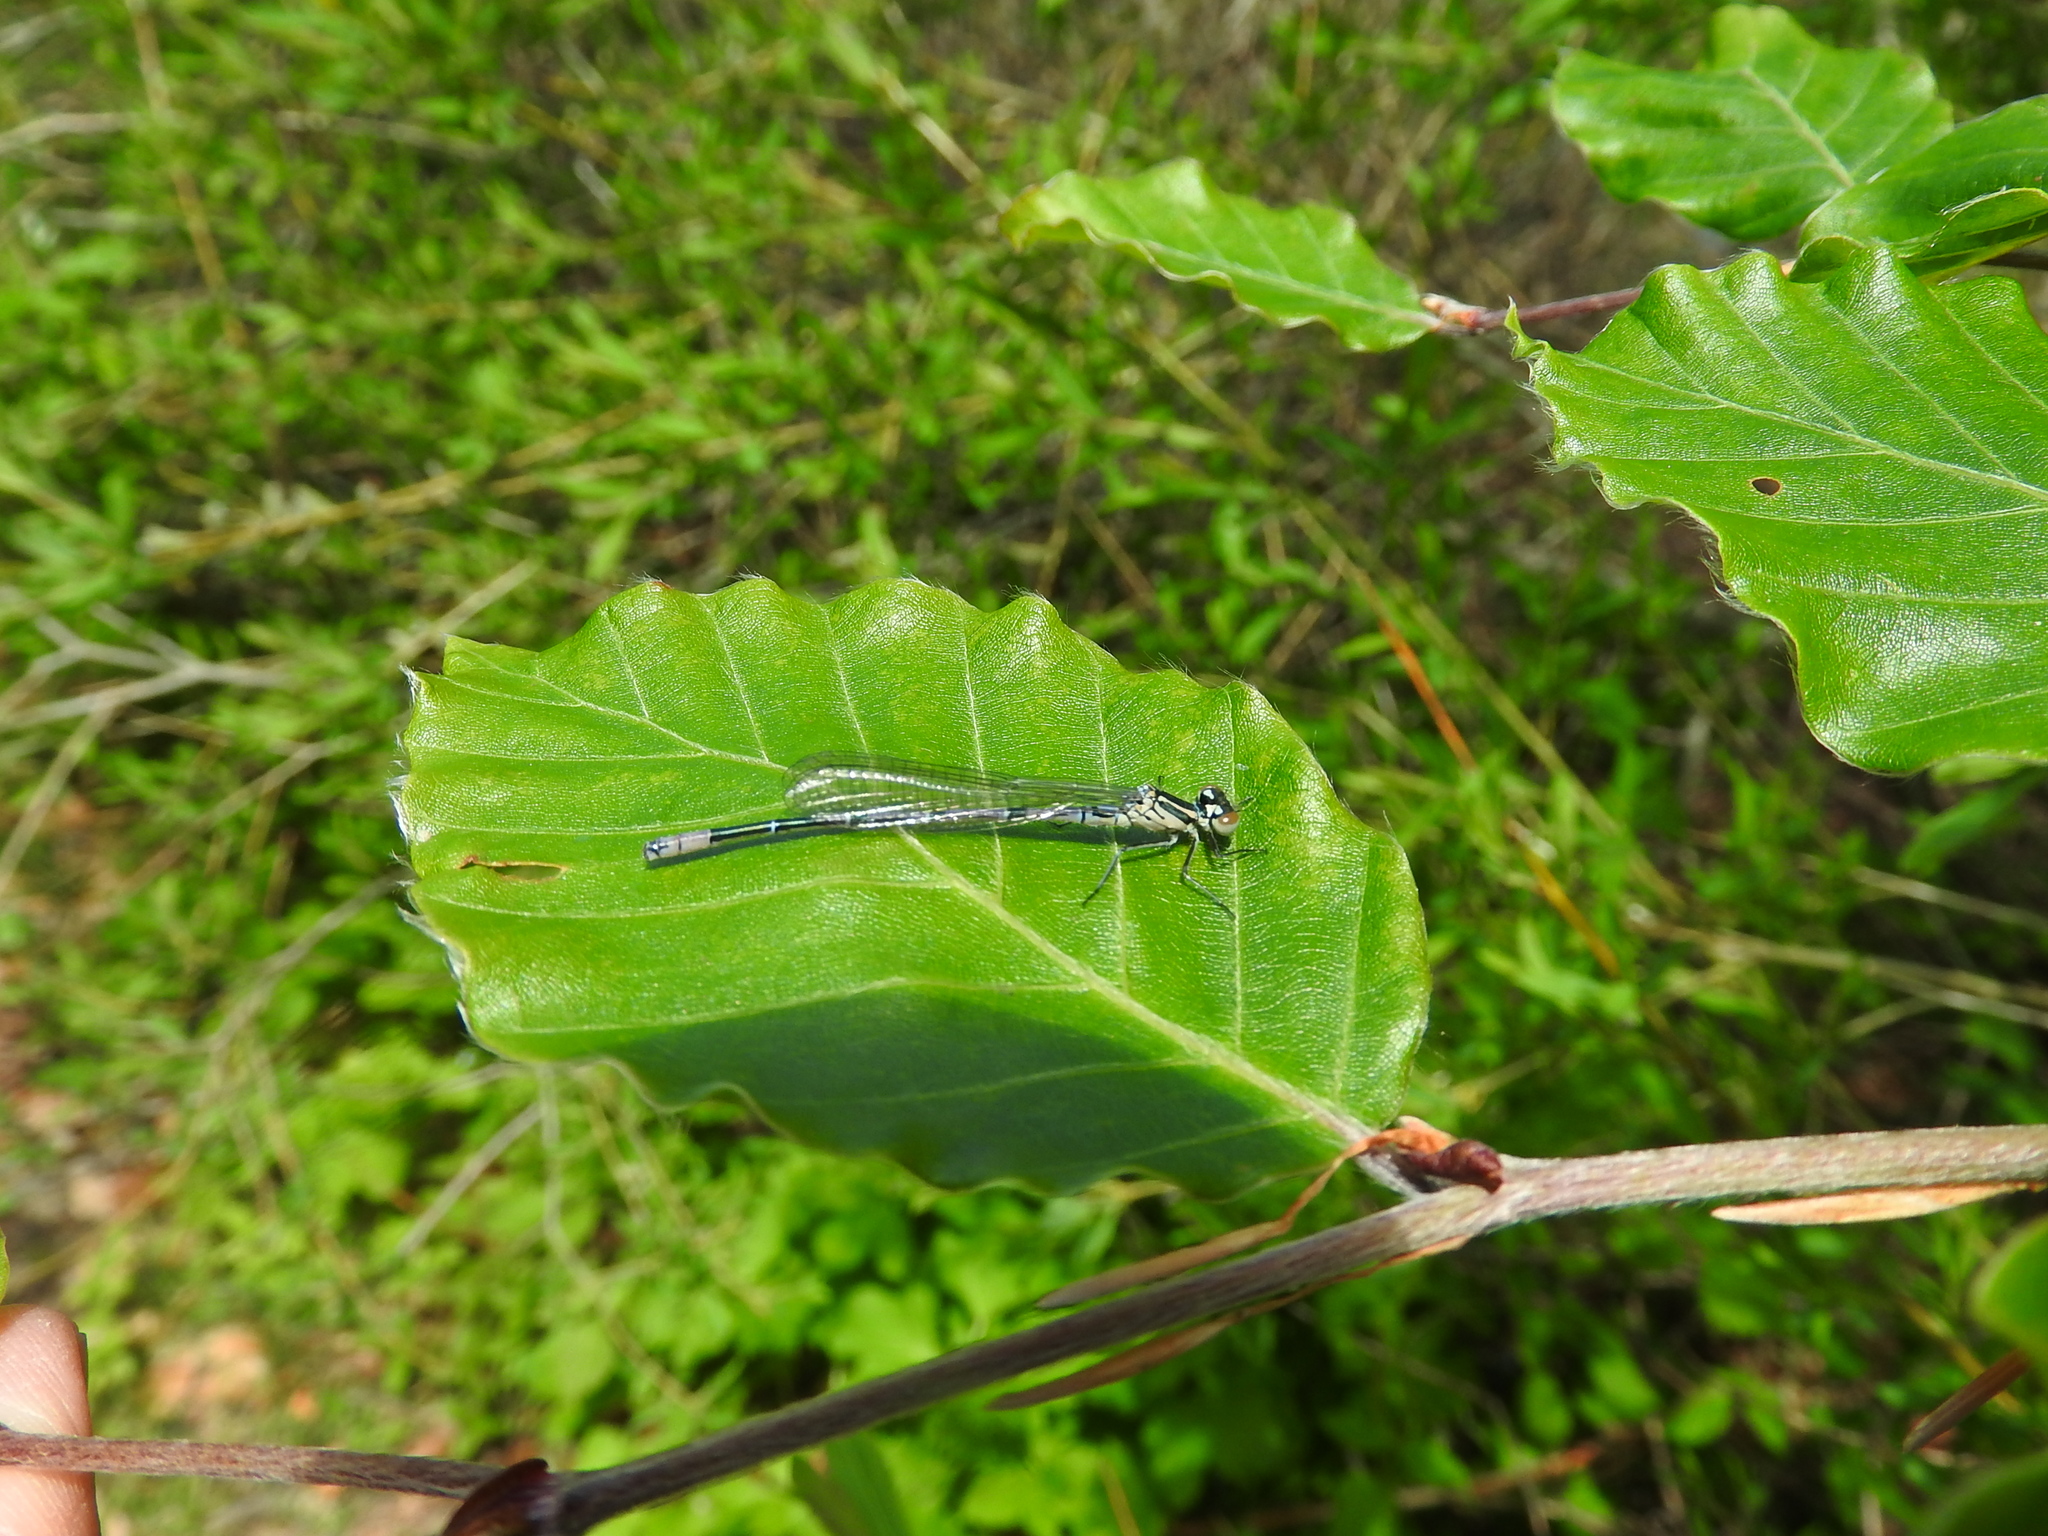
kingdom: Animalia
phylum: Arthropoda
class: Insecta
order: Odonata
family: Coenagrionidae
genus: Coenagrion
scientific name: Coenagrion puella
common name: Azure damselfly
